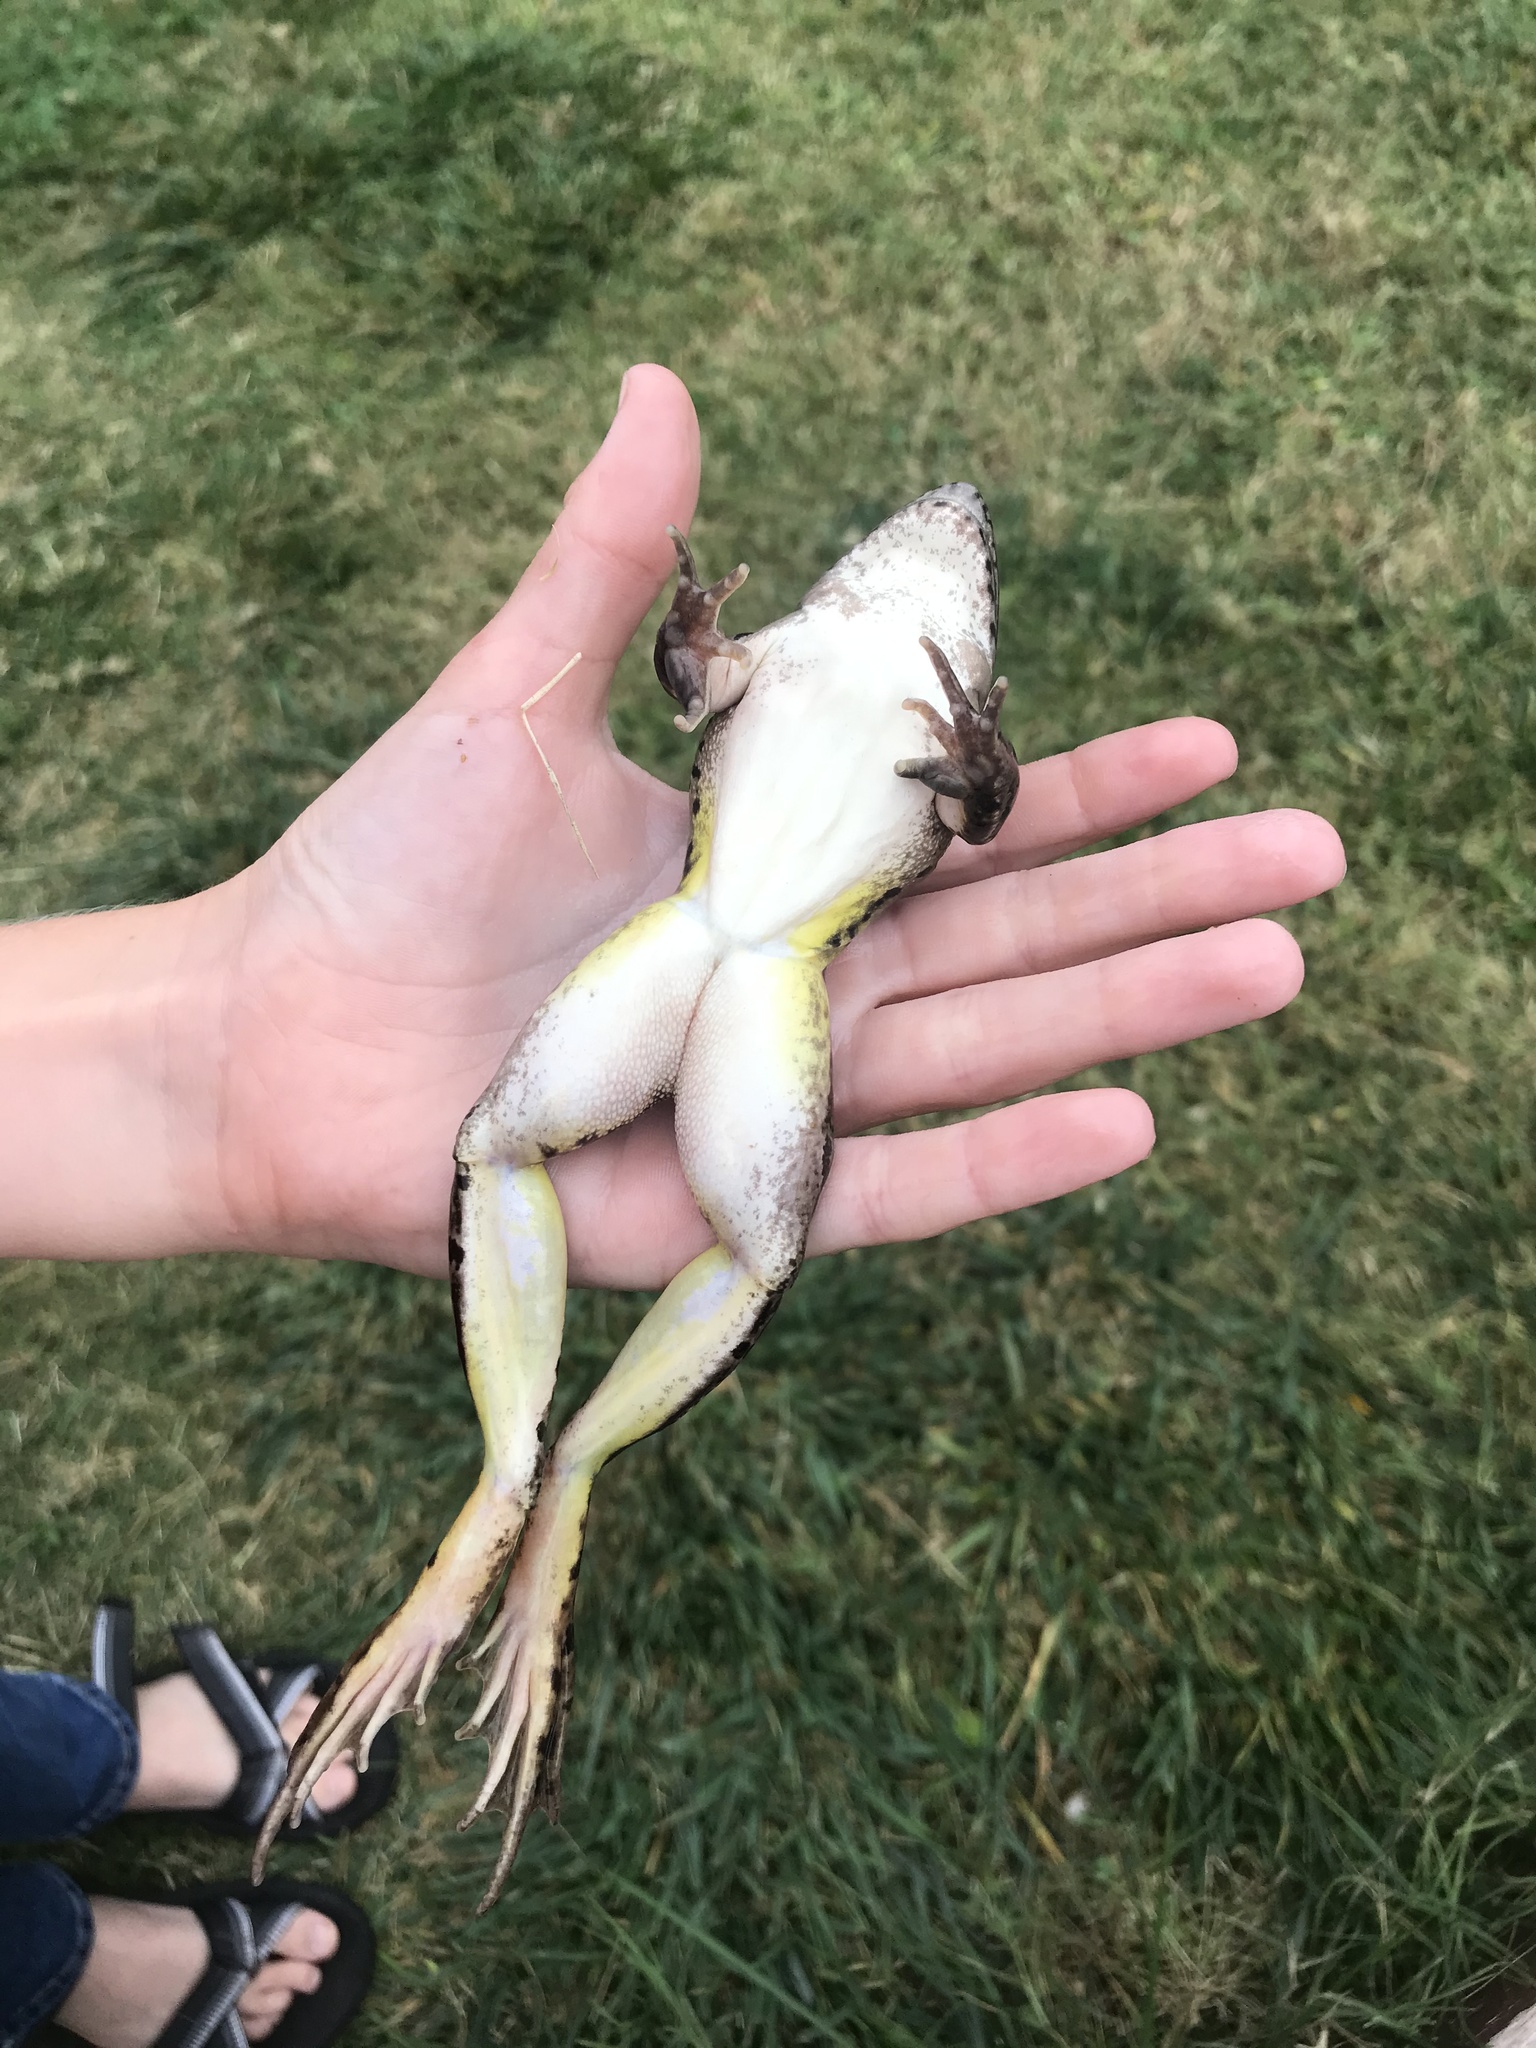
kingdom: Animalia
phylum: Chordata
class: Amphibia
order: Anura
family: Ranidae
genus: Lithobates
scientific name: Lithobates blairi
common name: Plains leopard frog
